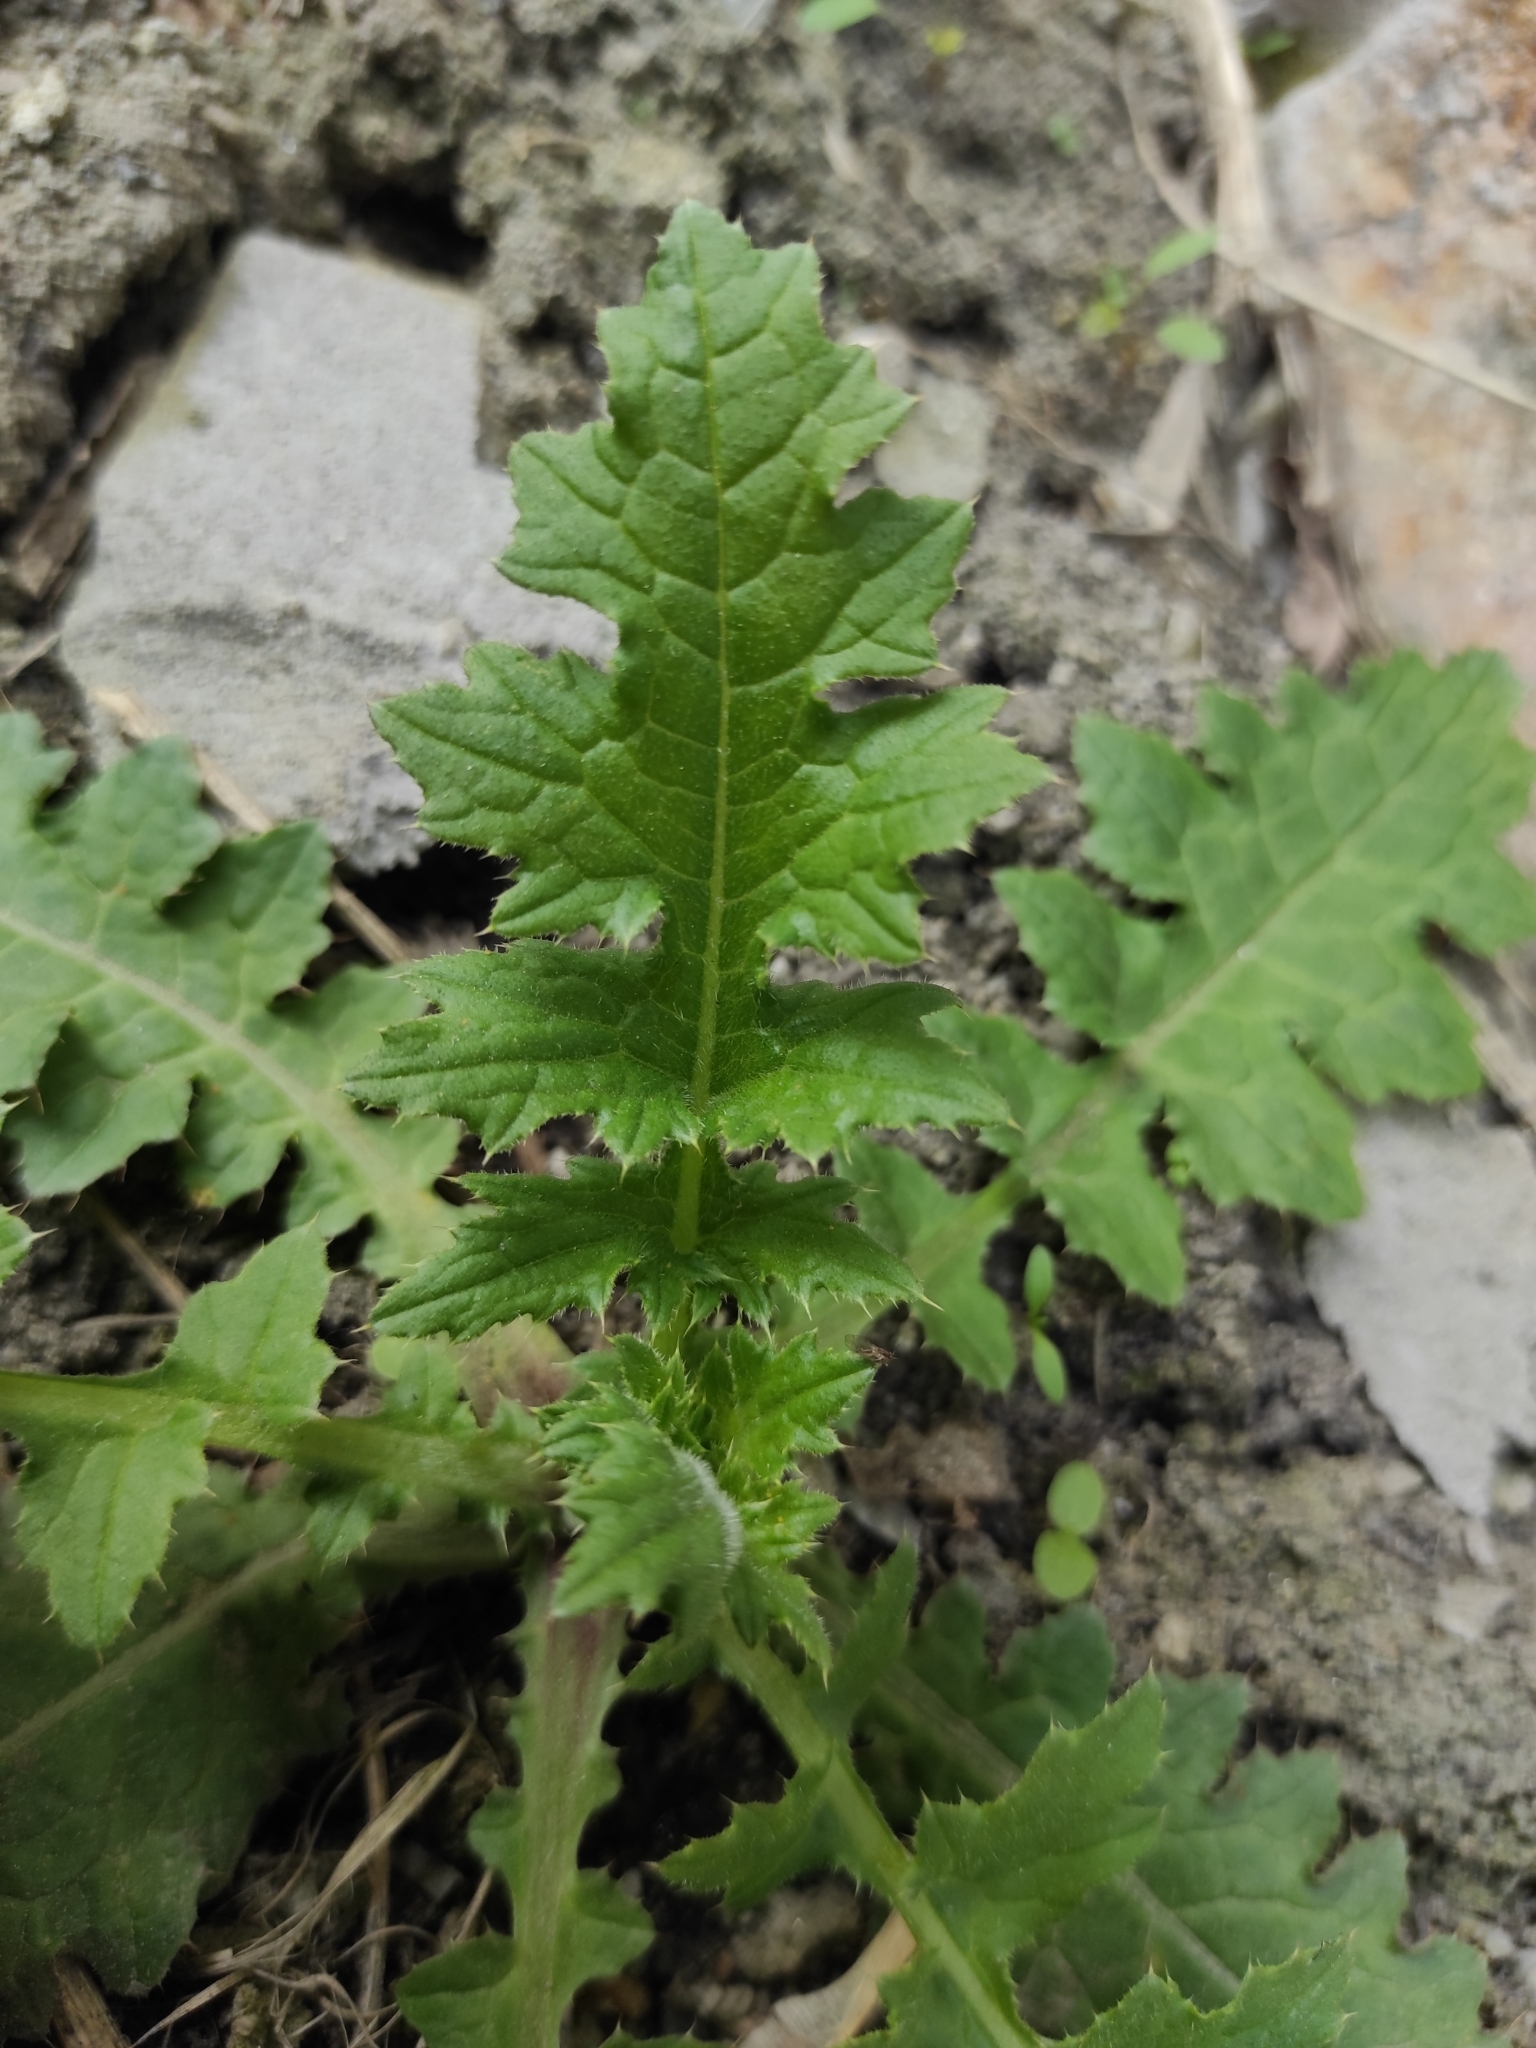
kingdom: Plantae
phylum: Tracheophyta
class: Magnoliopsida
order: Asterales
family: Asteraceae
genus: Carduus
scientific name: Carduus crispus
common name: Welted thistle
